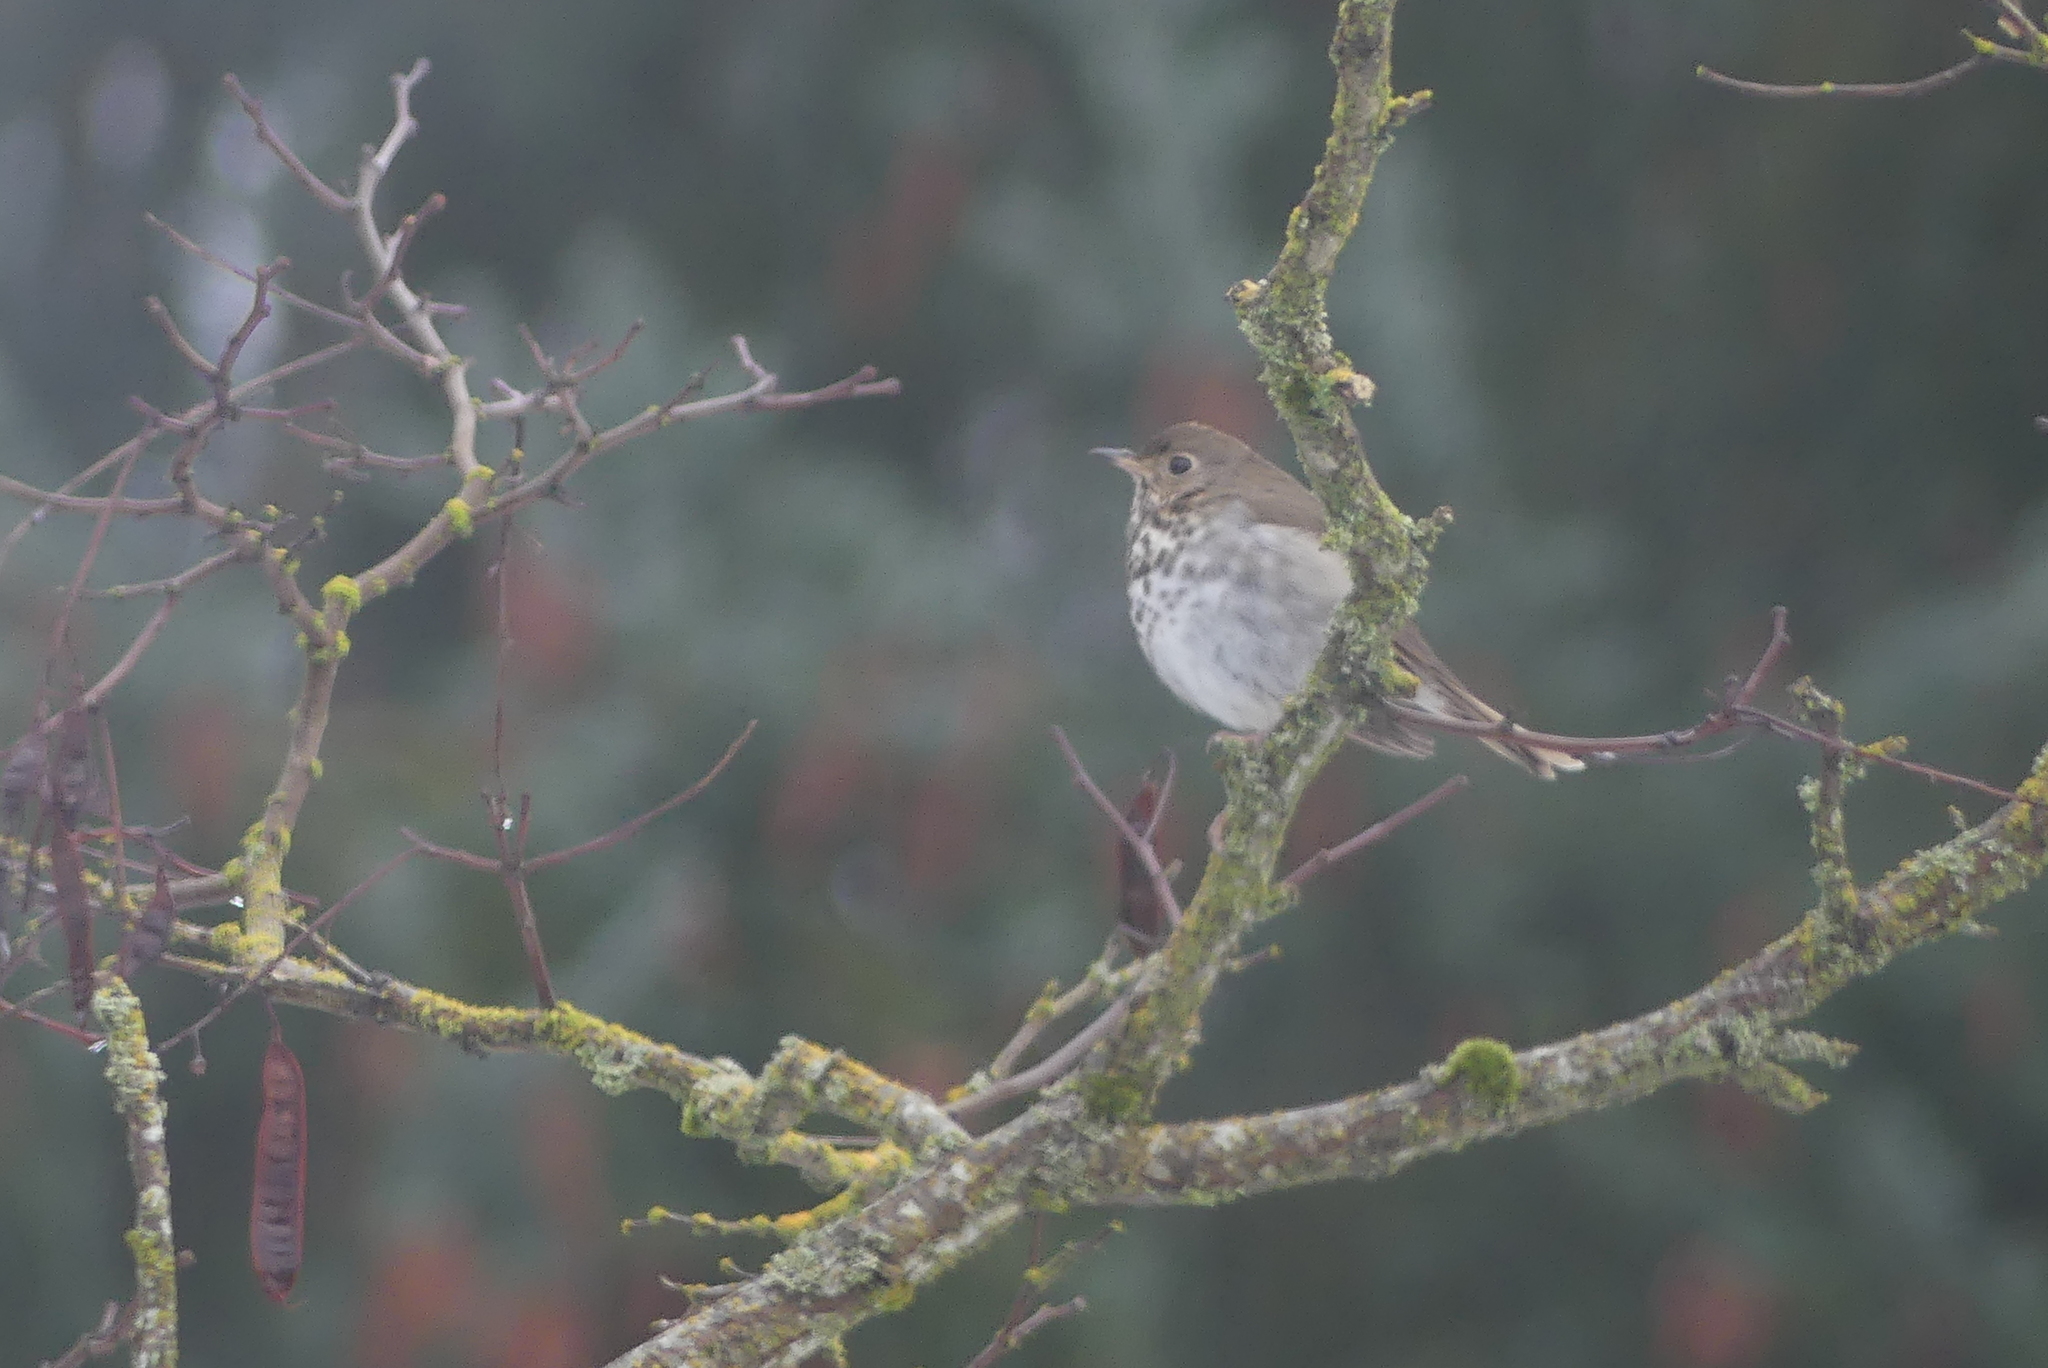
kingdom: Animalia
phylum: Chordata
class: Aves
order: Passeriformes
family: Turdidae
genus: Catharus
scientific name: Catharus guttatus
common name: Hermit thrush
